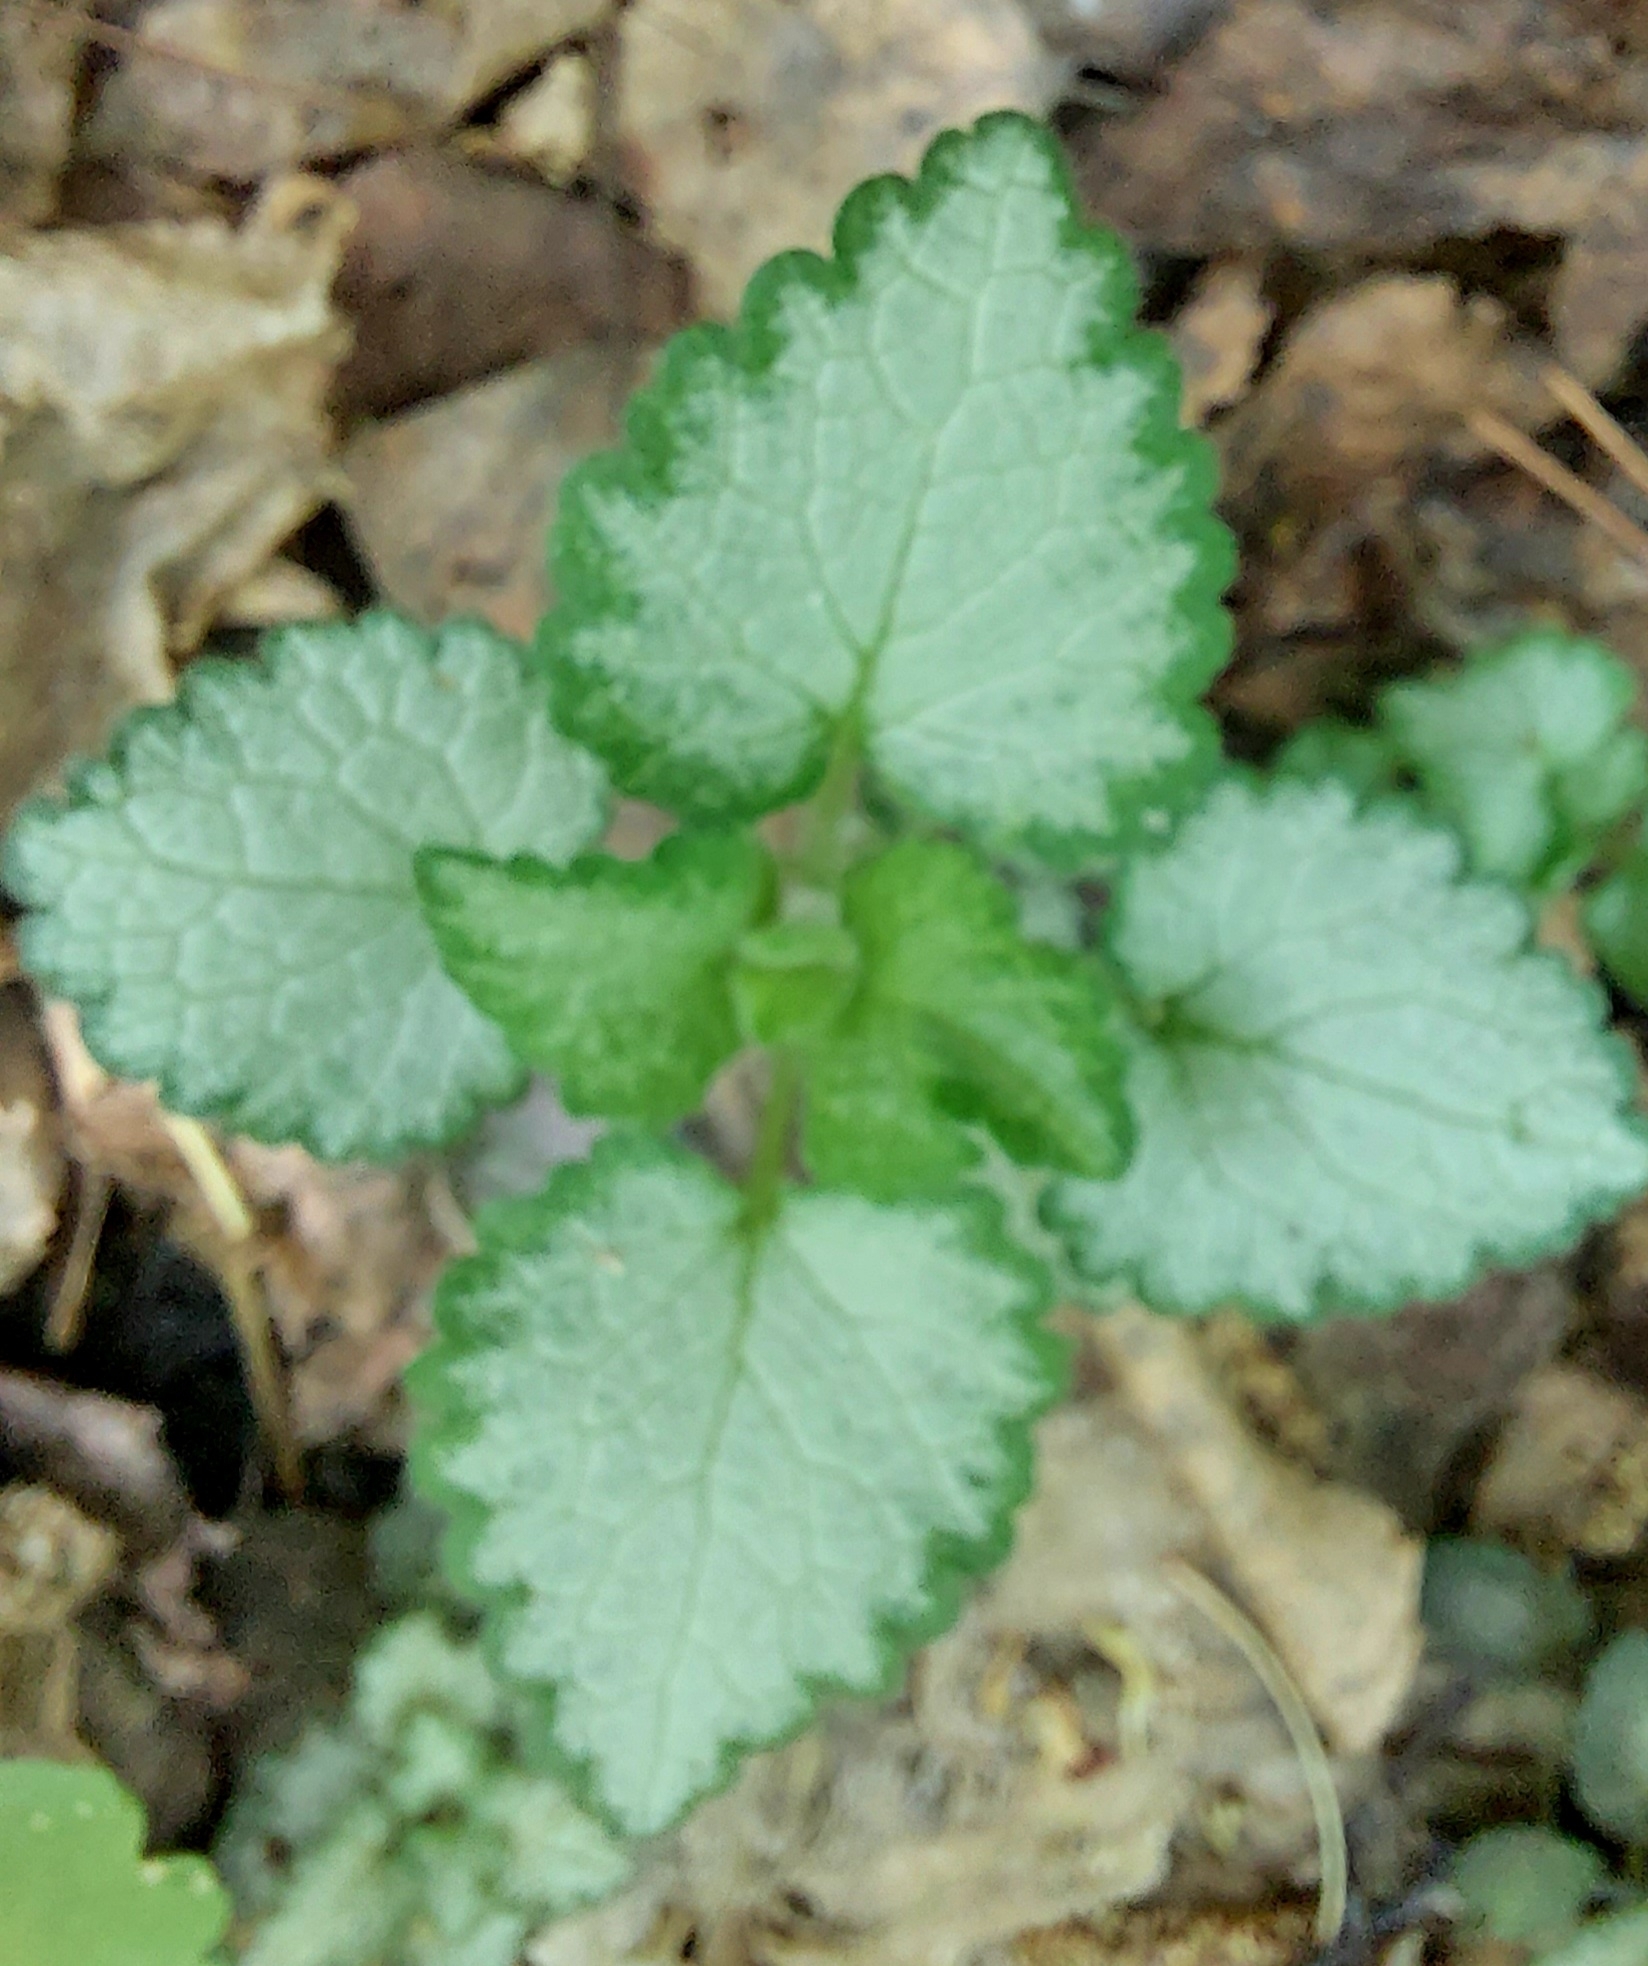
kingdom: Plantae
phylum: Tracheophyta
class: Magnoliopsida
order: Lamiales
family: Lamiaceae
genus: Lamium
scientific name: Lamium maculatum
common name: Spotted dead-nettle
